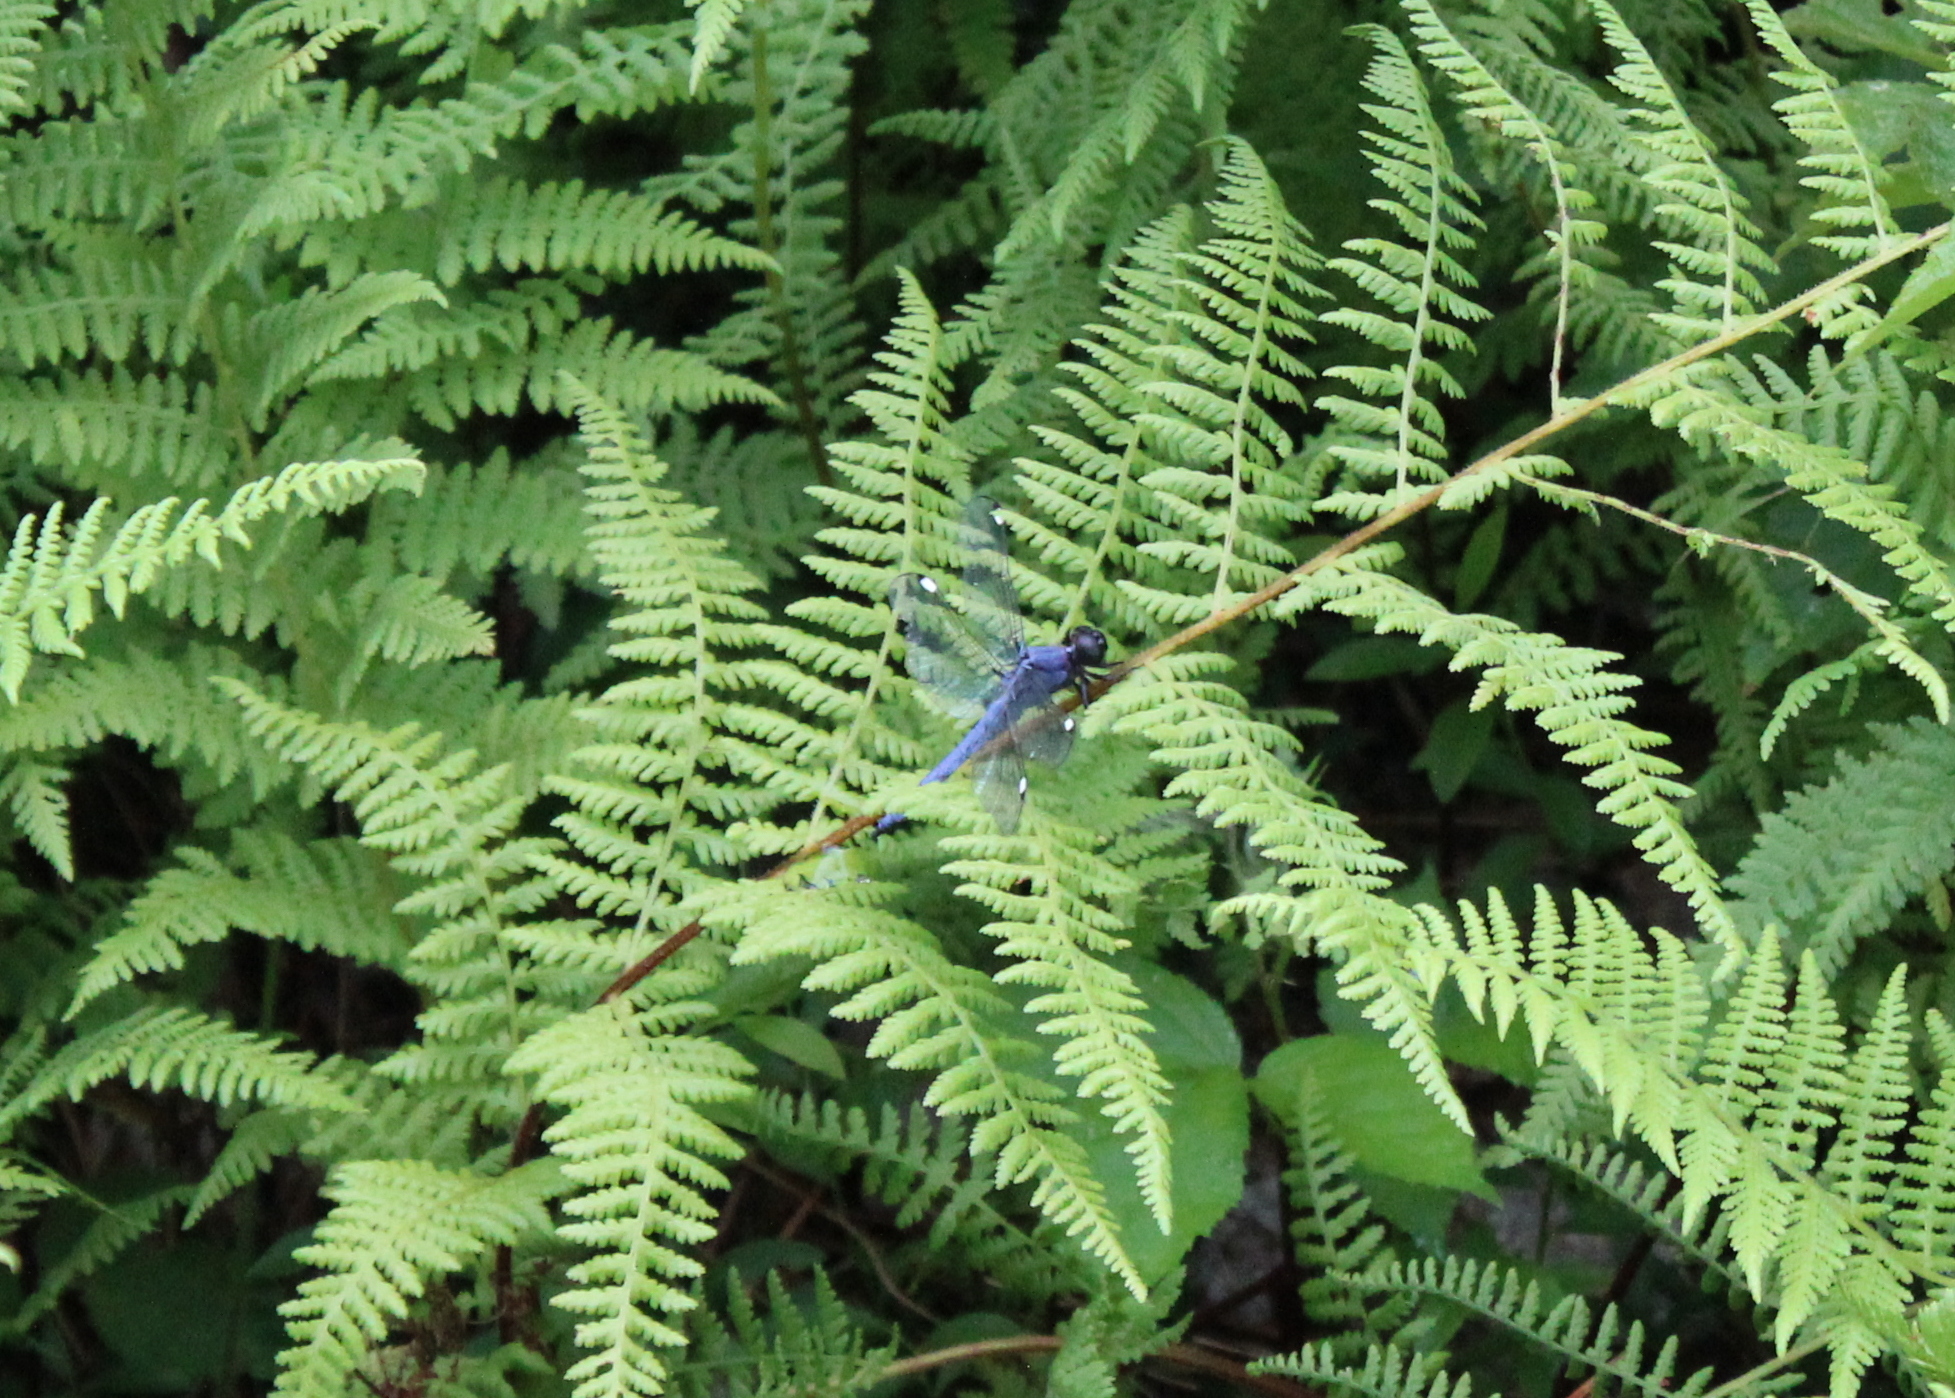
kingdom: Animalia
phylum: Arthropoda
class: Insecta
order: Odonata
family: Libellulidae
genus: Libellula
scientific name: Libellula cyanea
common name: Spangled skimmer
